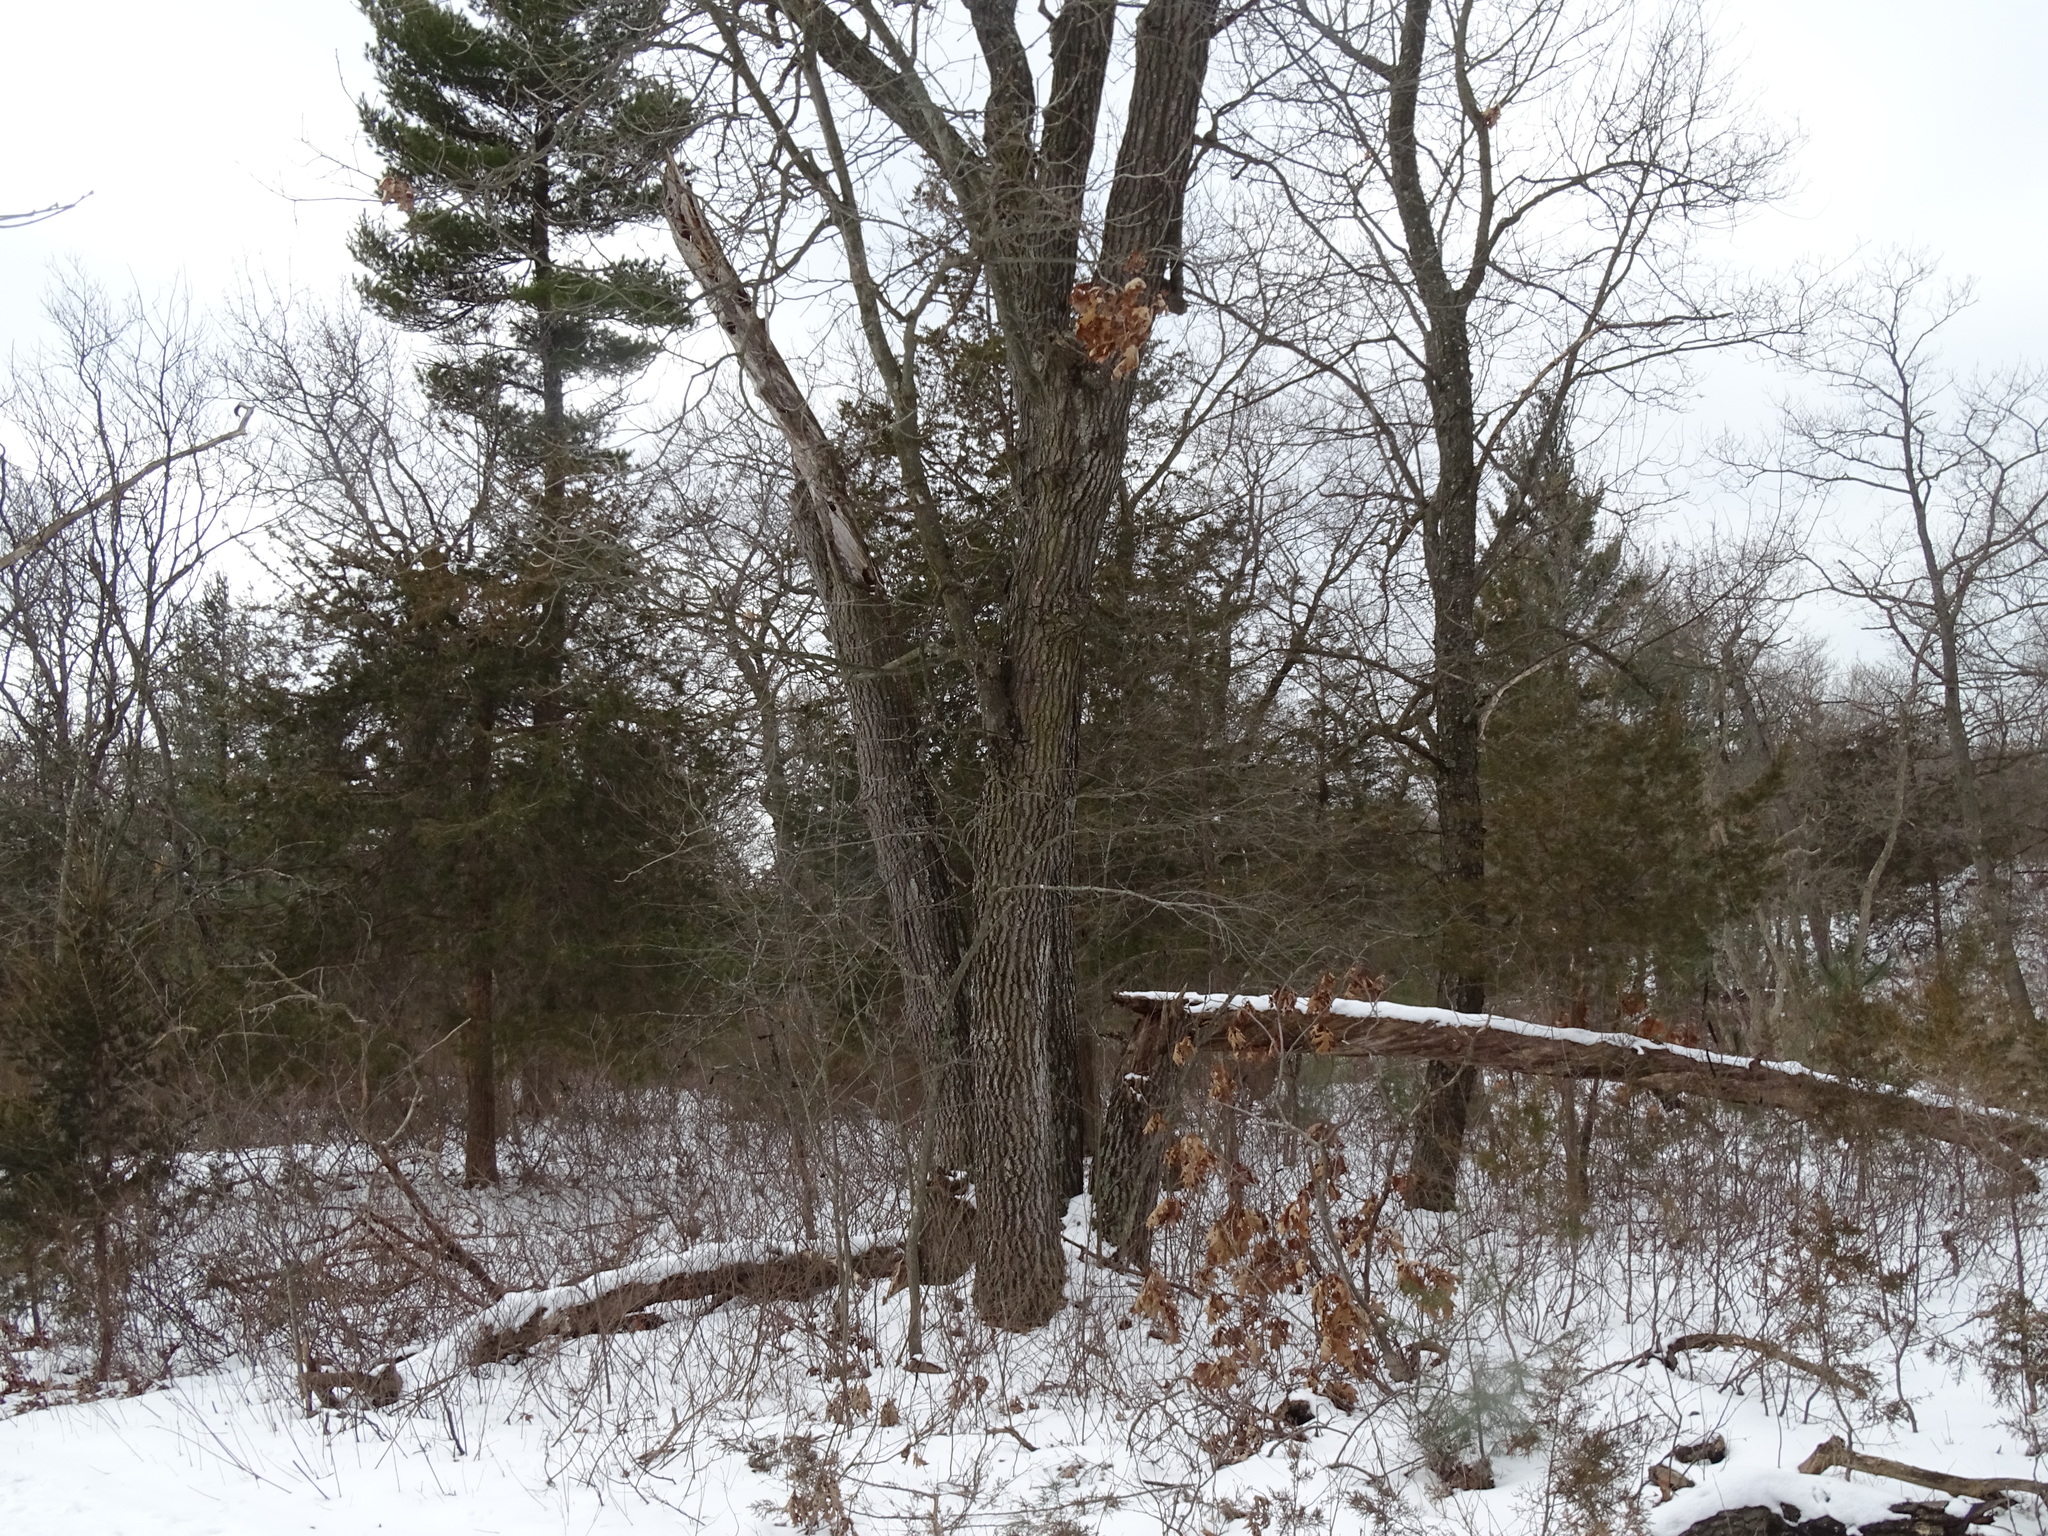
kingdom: Plantae
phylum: Tracheophyta
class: Magnoliopsida
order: Fagales
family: Fagaceae
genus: Quercus
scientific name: Quercus velutina
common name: Black oak
